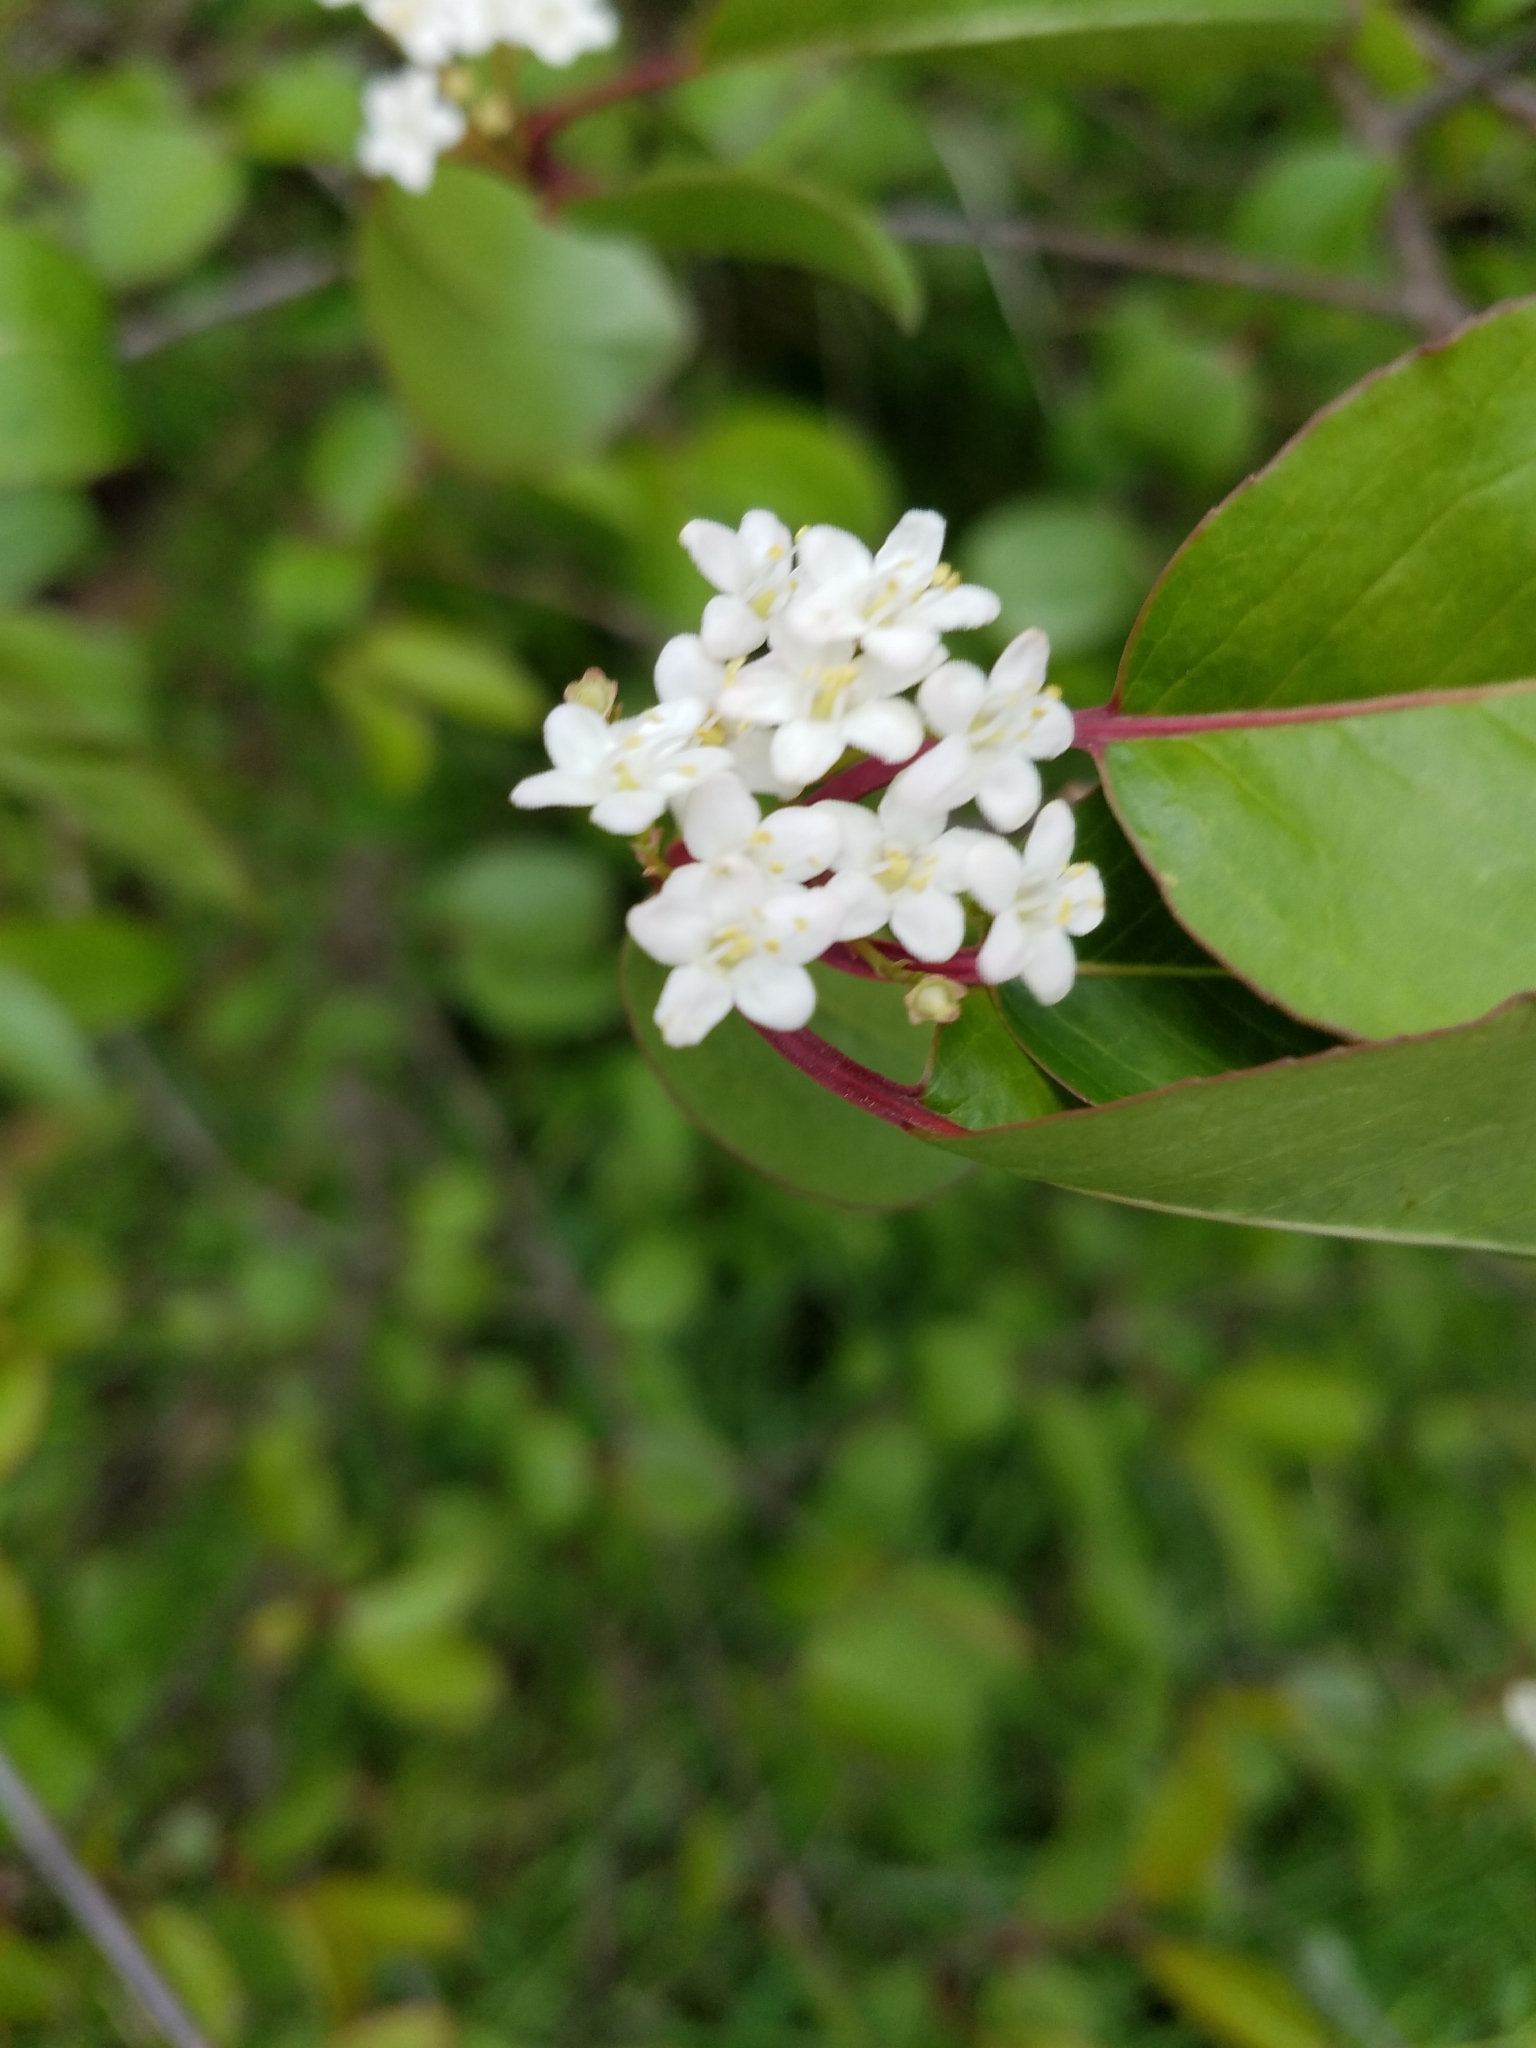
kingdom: Plantae
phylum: Tracheophyta
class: Magnoliopsida
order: Dipsacales
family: Viburnaceae
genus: Viburnum
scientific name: Viburnum prunifolium
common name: Black haw
